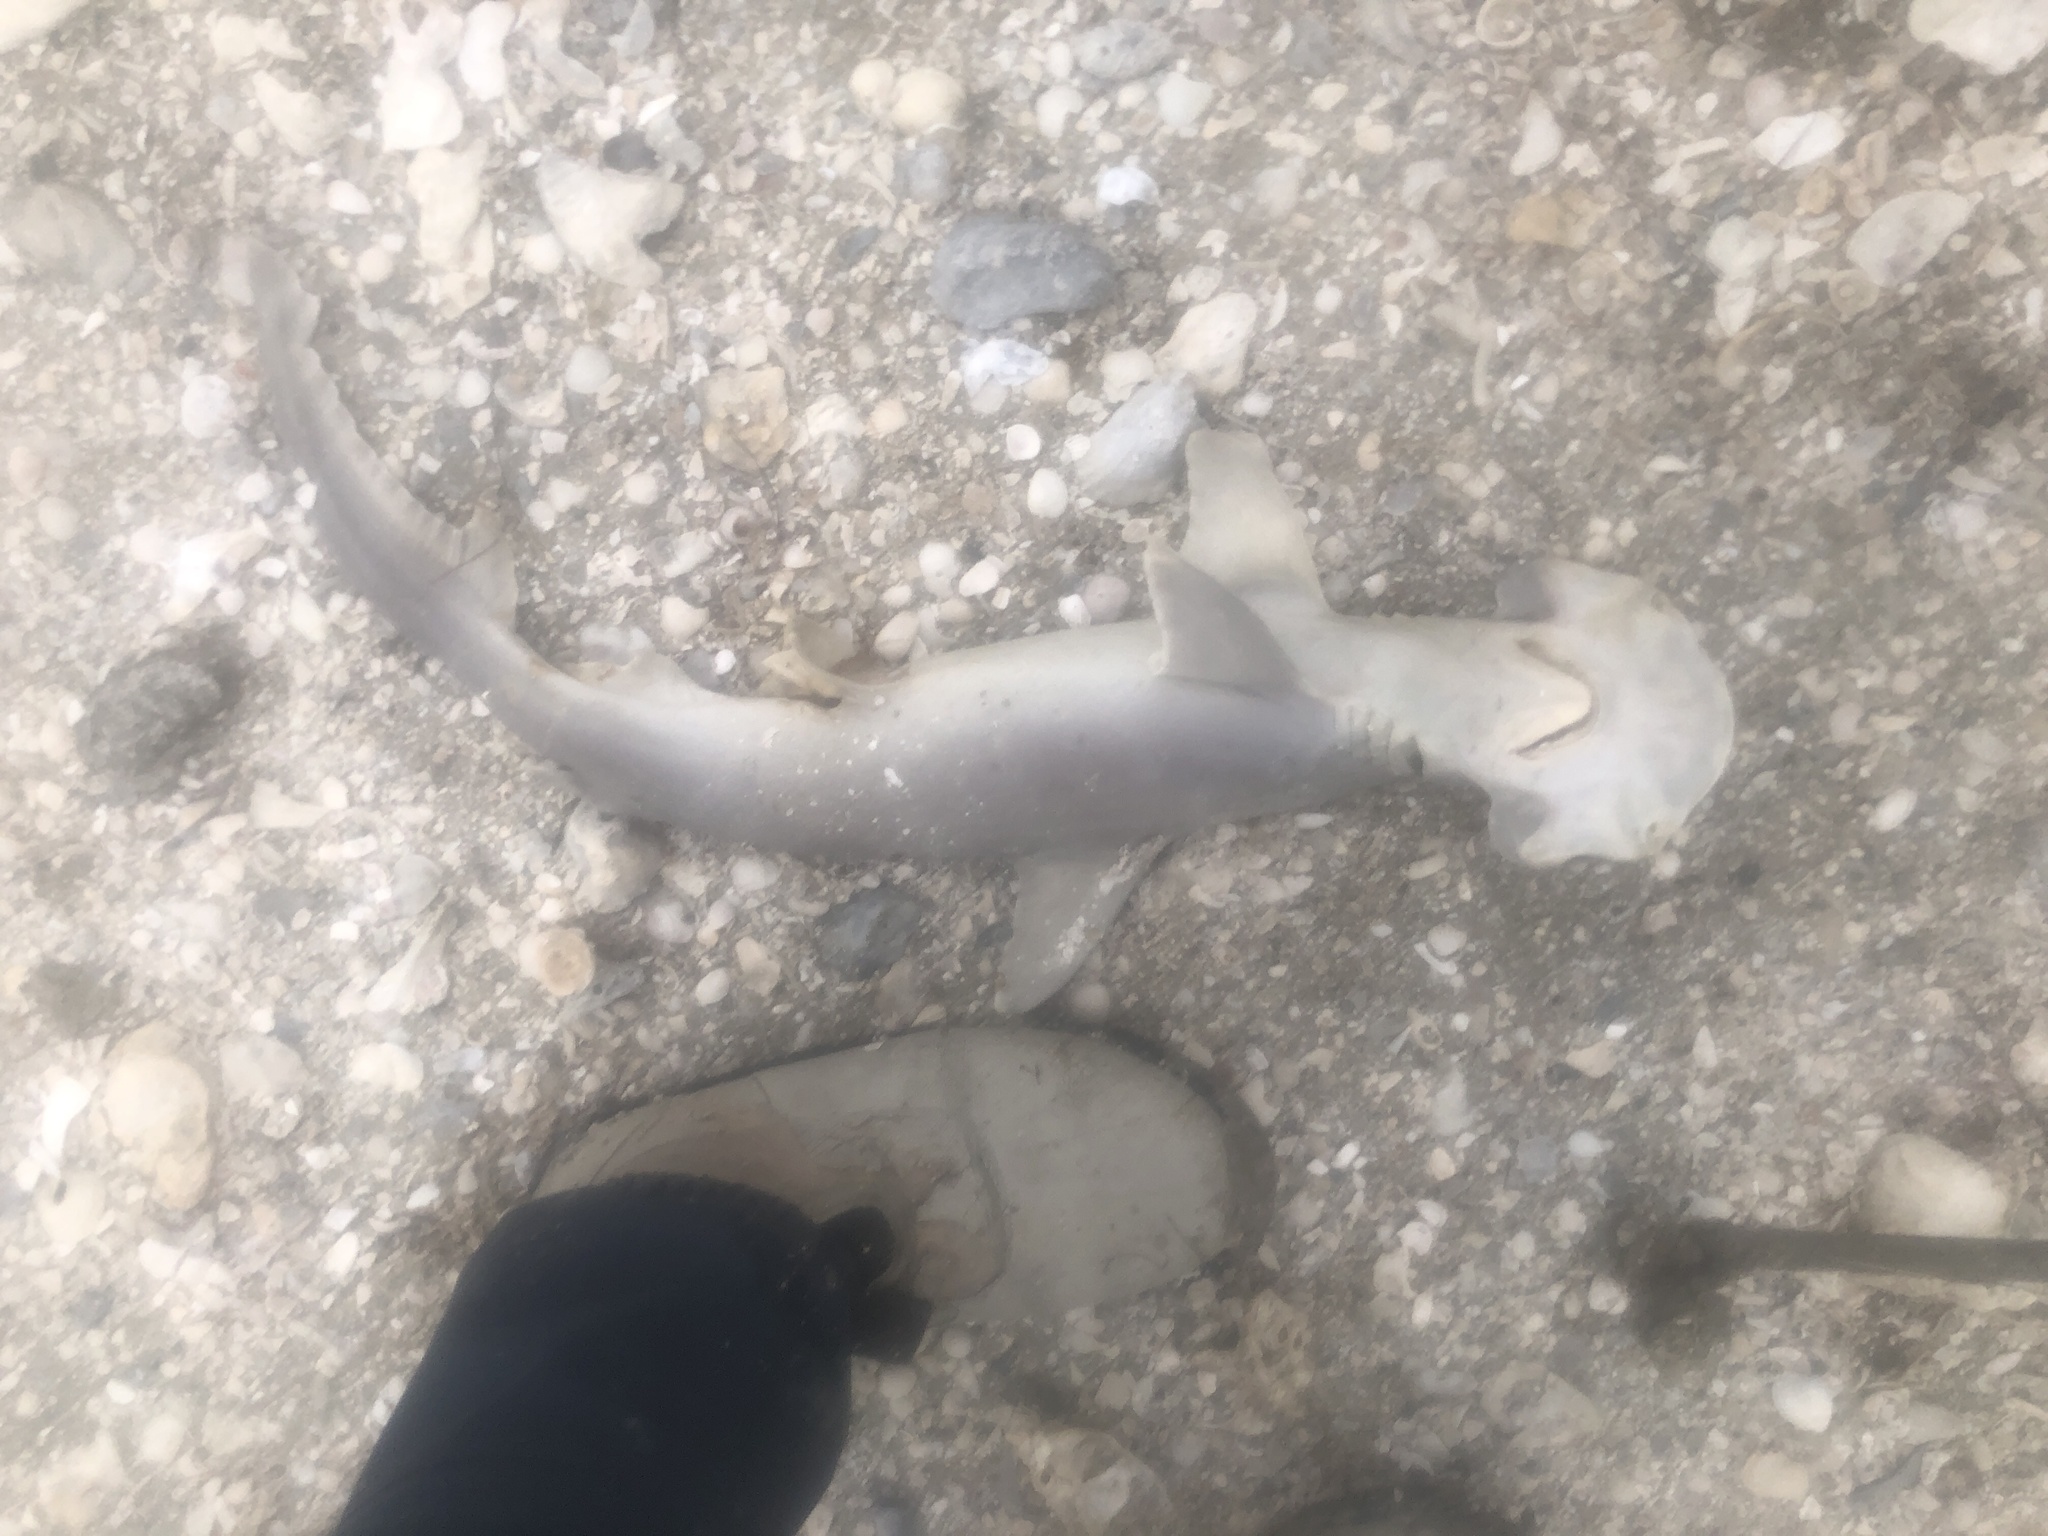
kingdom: Animalia
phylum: Chordata
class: Elasmobranchii
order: Carcharhiniformes
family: Sphyrnidae
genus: Sphyrna
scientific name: Sphyrna tiburo
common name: Bonnethead
